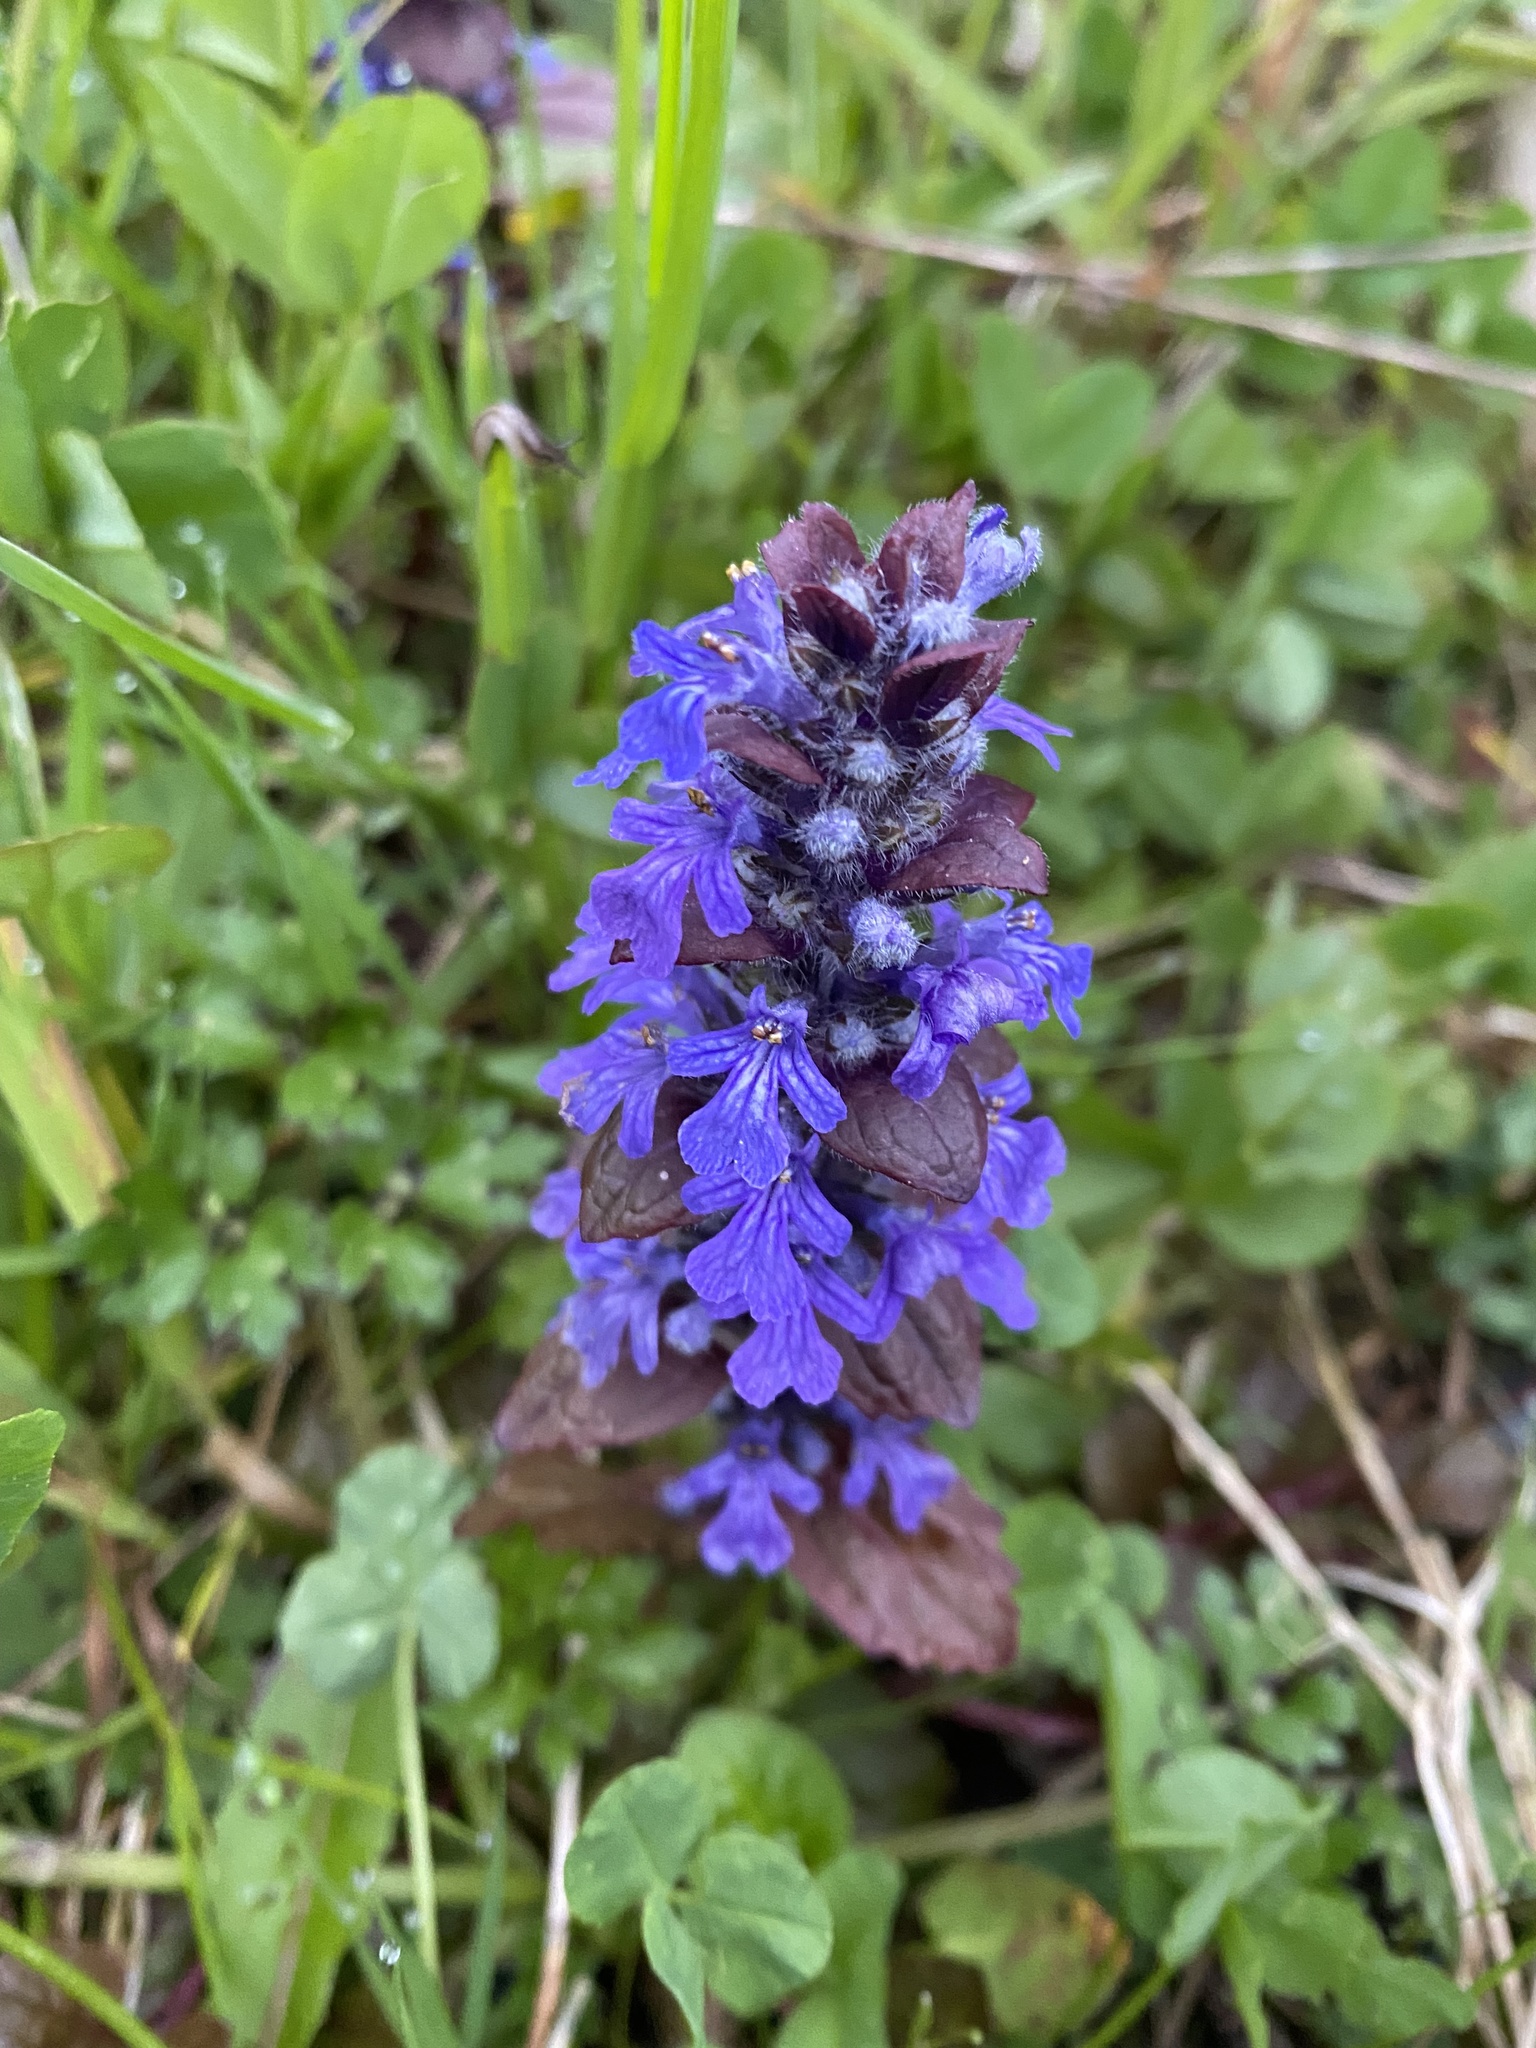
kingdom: Plantae
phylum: Tracheophyta
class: Magnoliopsida
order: Lamiales
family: Lamiaceae
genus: Ajuga
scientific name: Ajuga reptans
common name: Bugle
